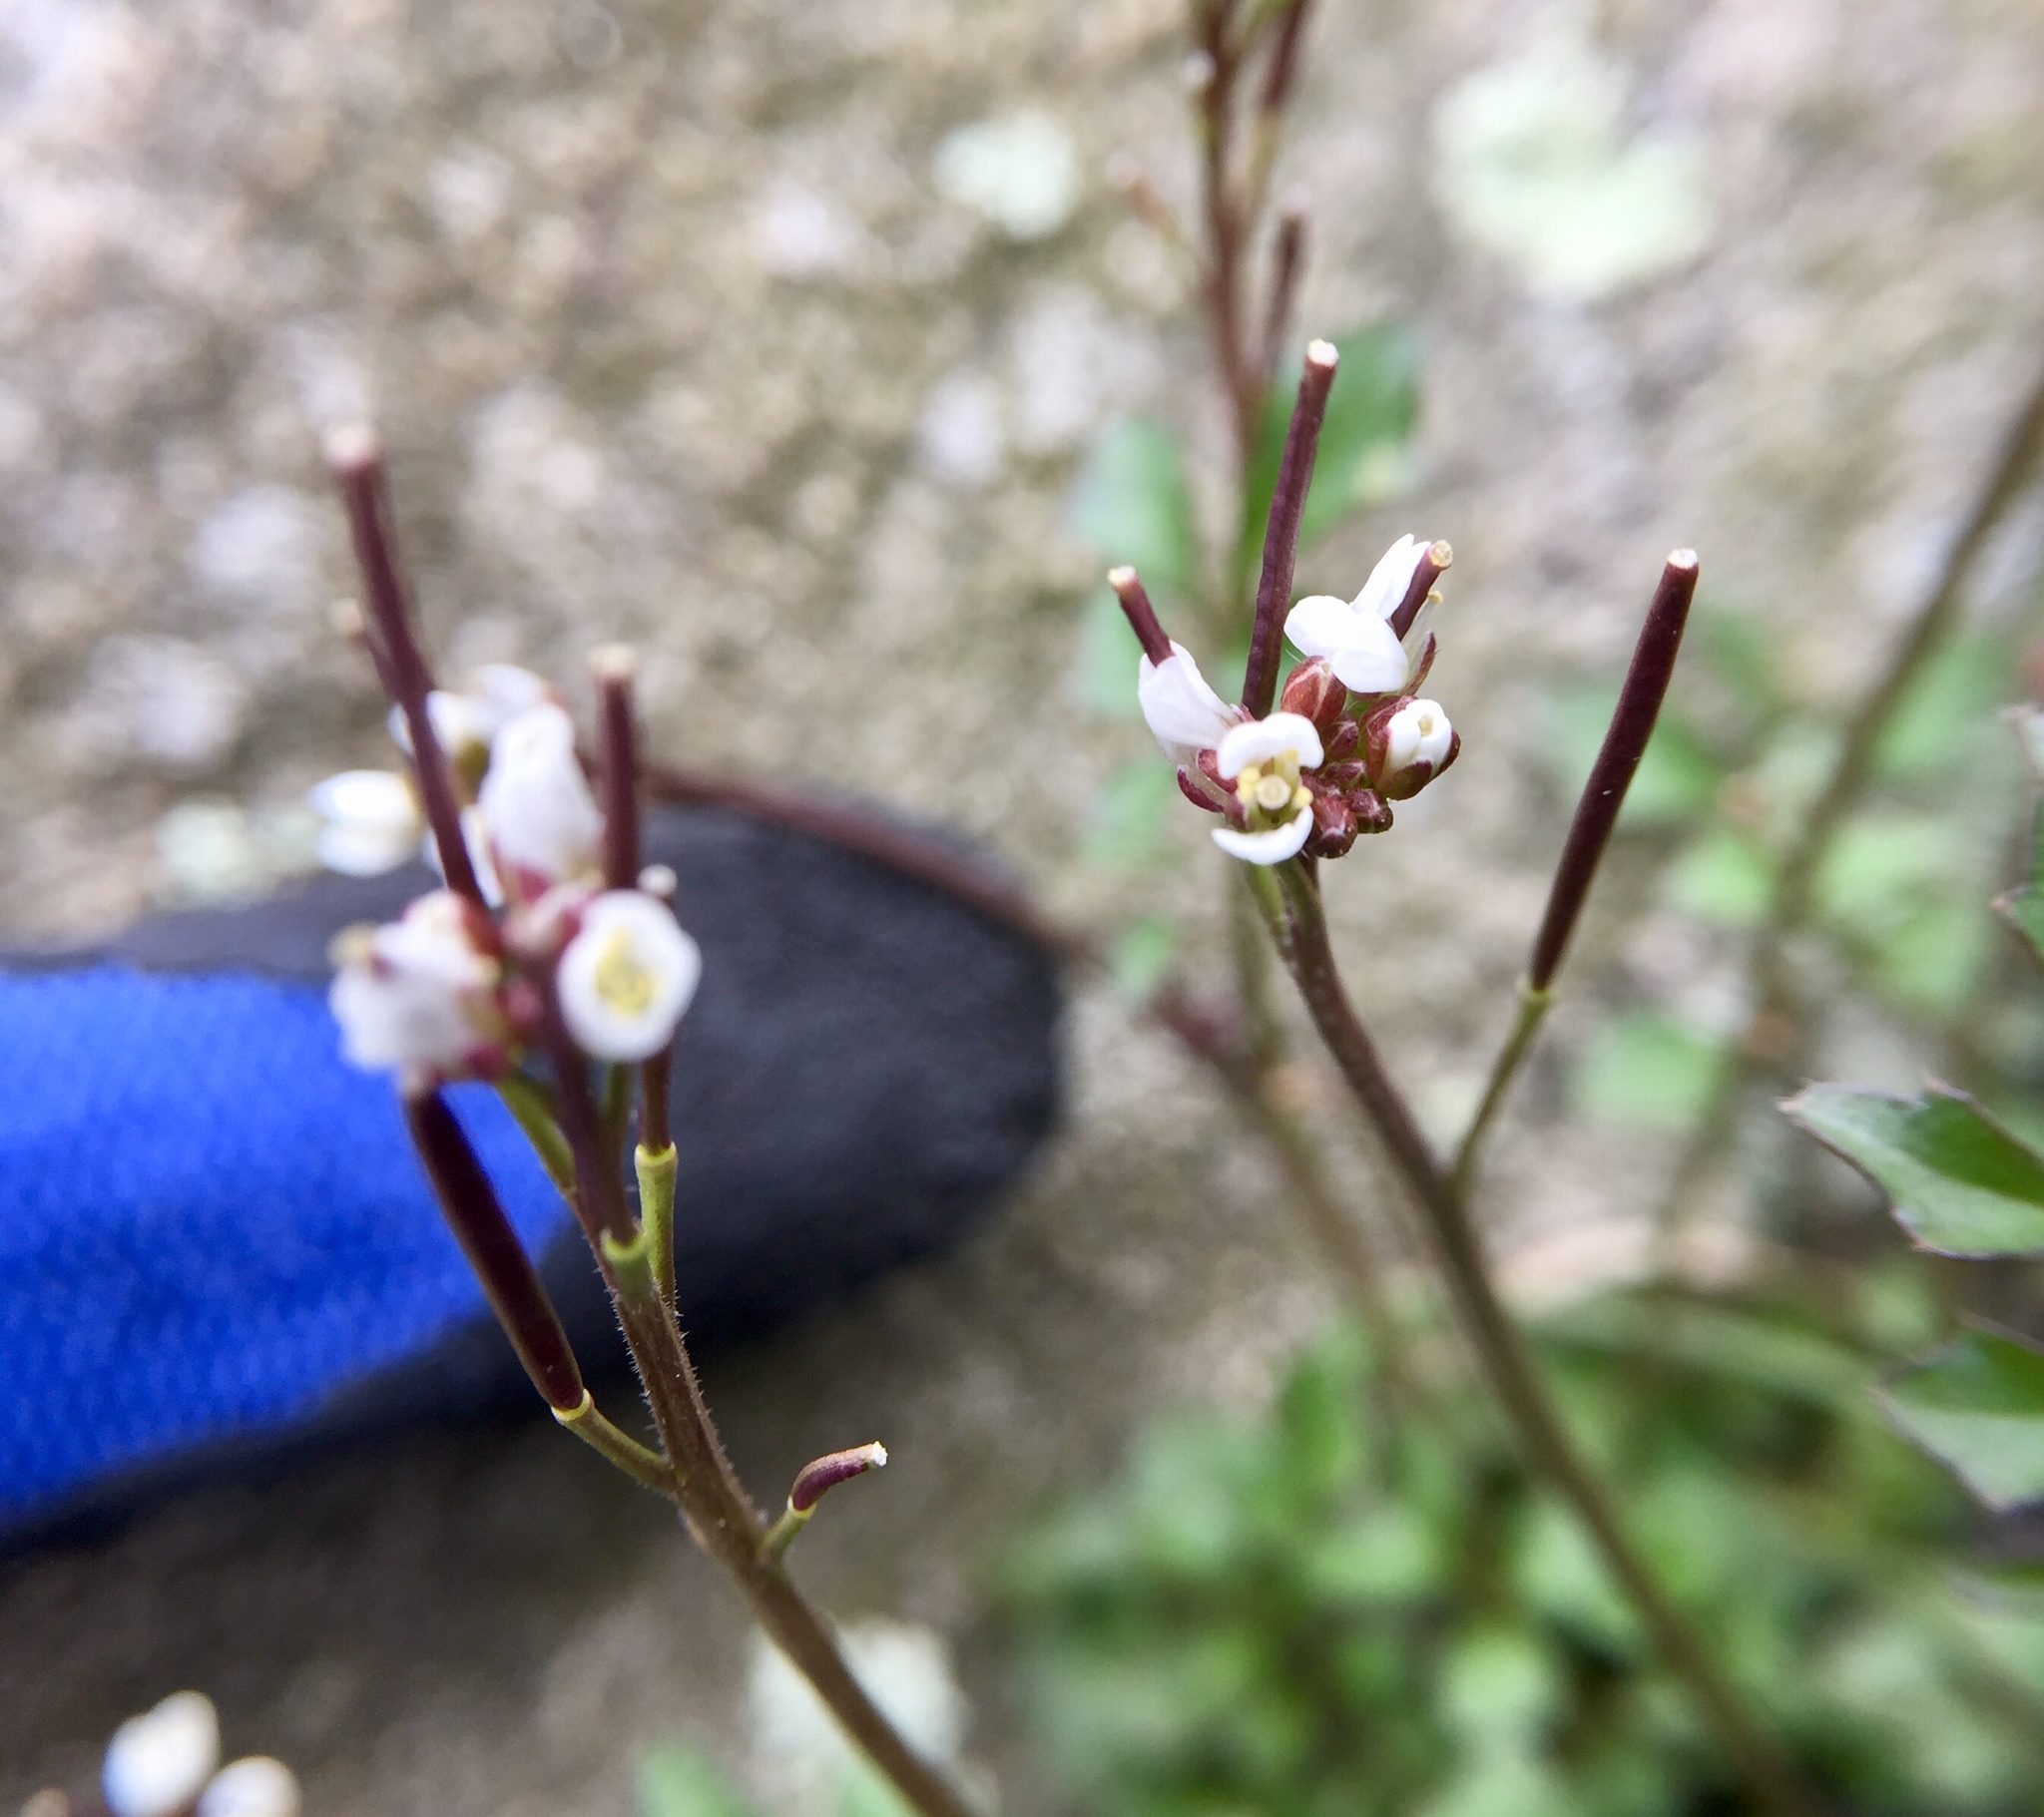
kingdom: Plantae
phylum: Tracheophyta
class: Magnoliopsida
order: Brassicales
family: Brassicaceae
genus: Cardamine
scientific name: Cardamine hirsuta
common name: Hairy bittercress
